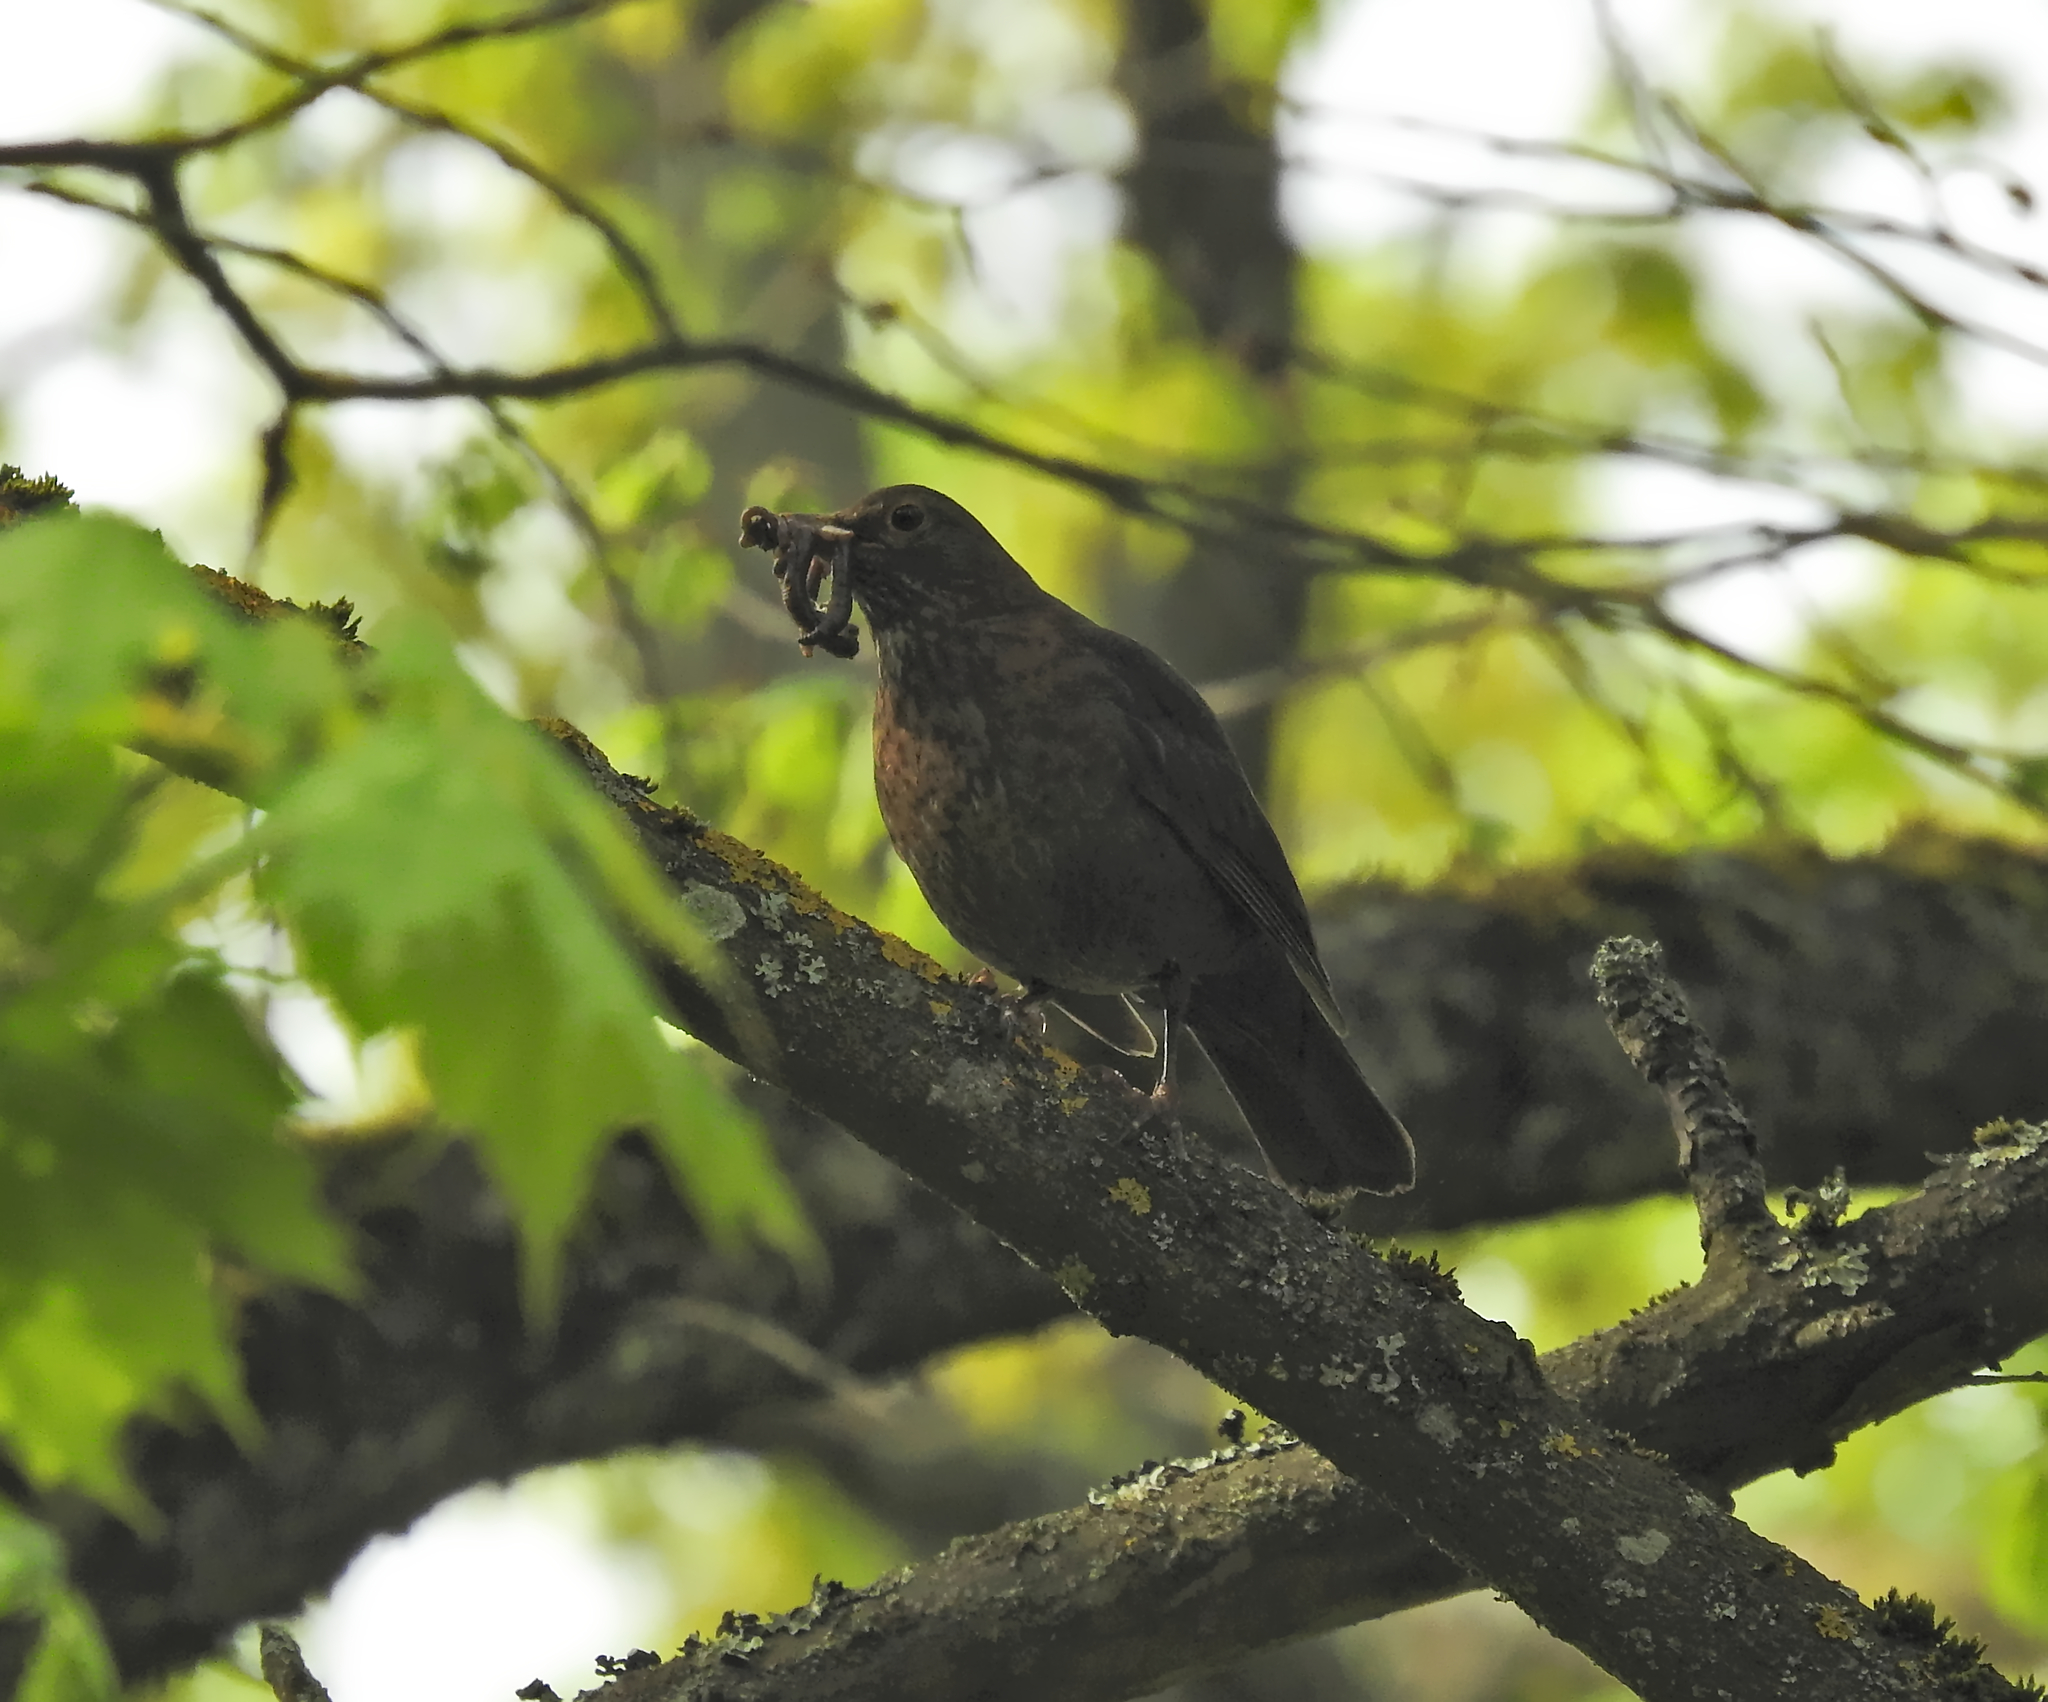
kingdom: Animalia
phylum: Chordata
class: Aves
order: Passeriformes
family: Turdidae
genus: Turdus
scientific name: Turdus merula
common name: Common blackbird
